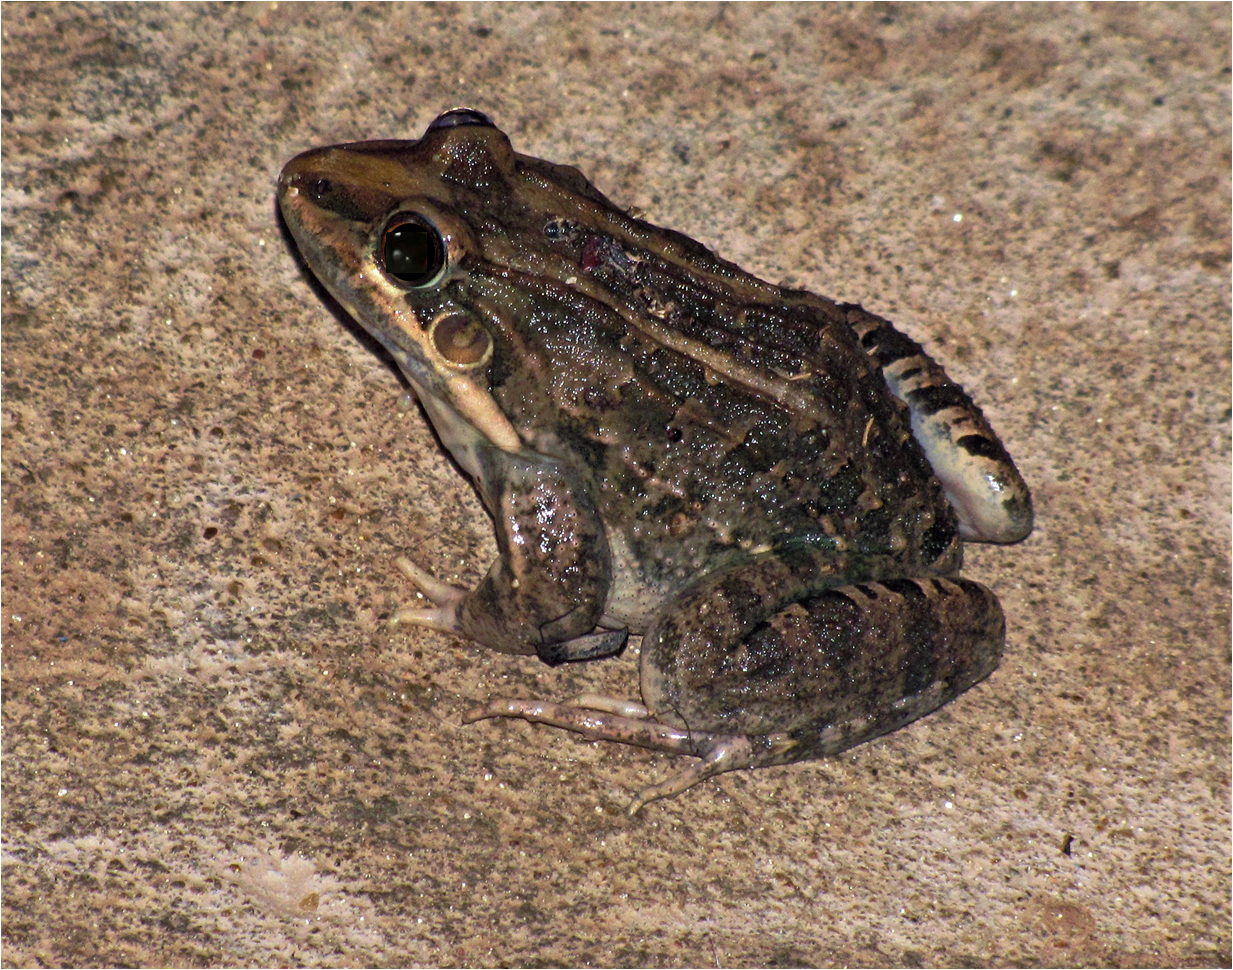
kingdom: Animalia
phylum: Chordata
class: Amphibia
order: Anura
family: Leptodactylidae
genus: Leptodactylus
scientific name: Leptodactylus macrosternum
